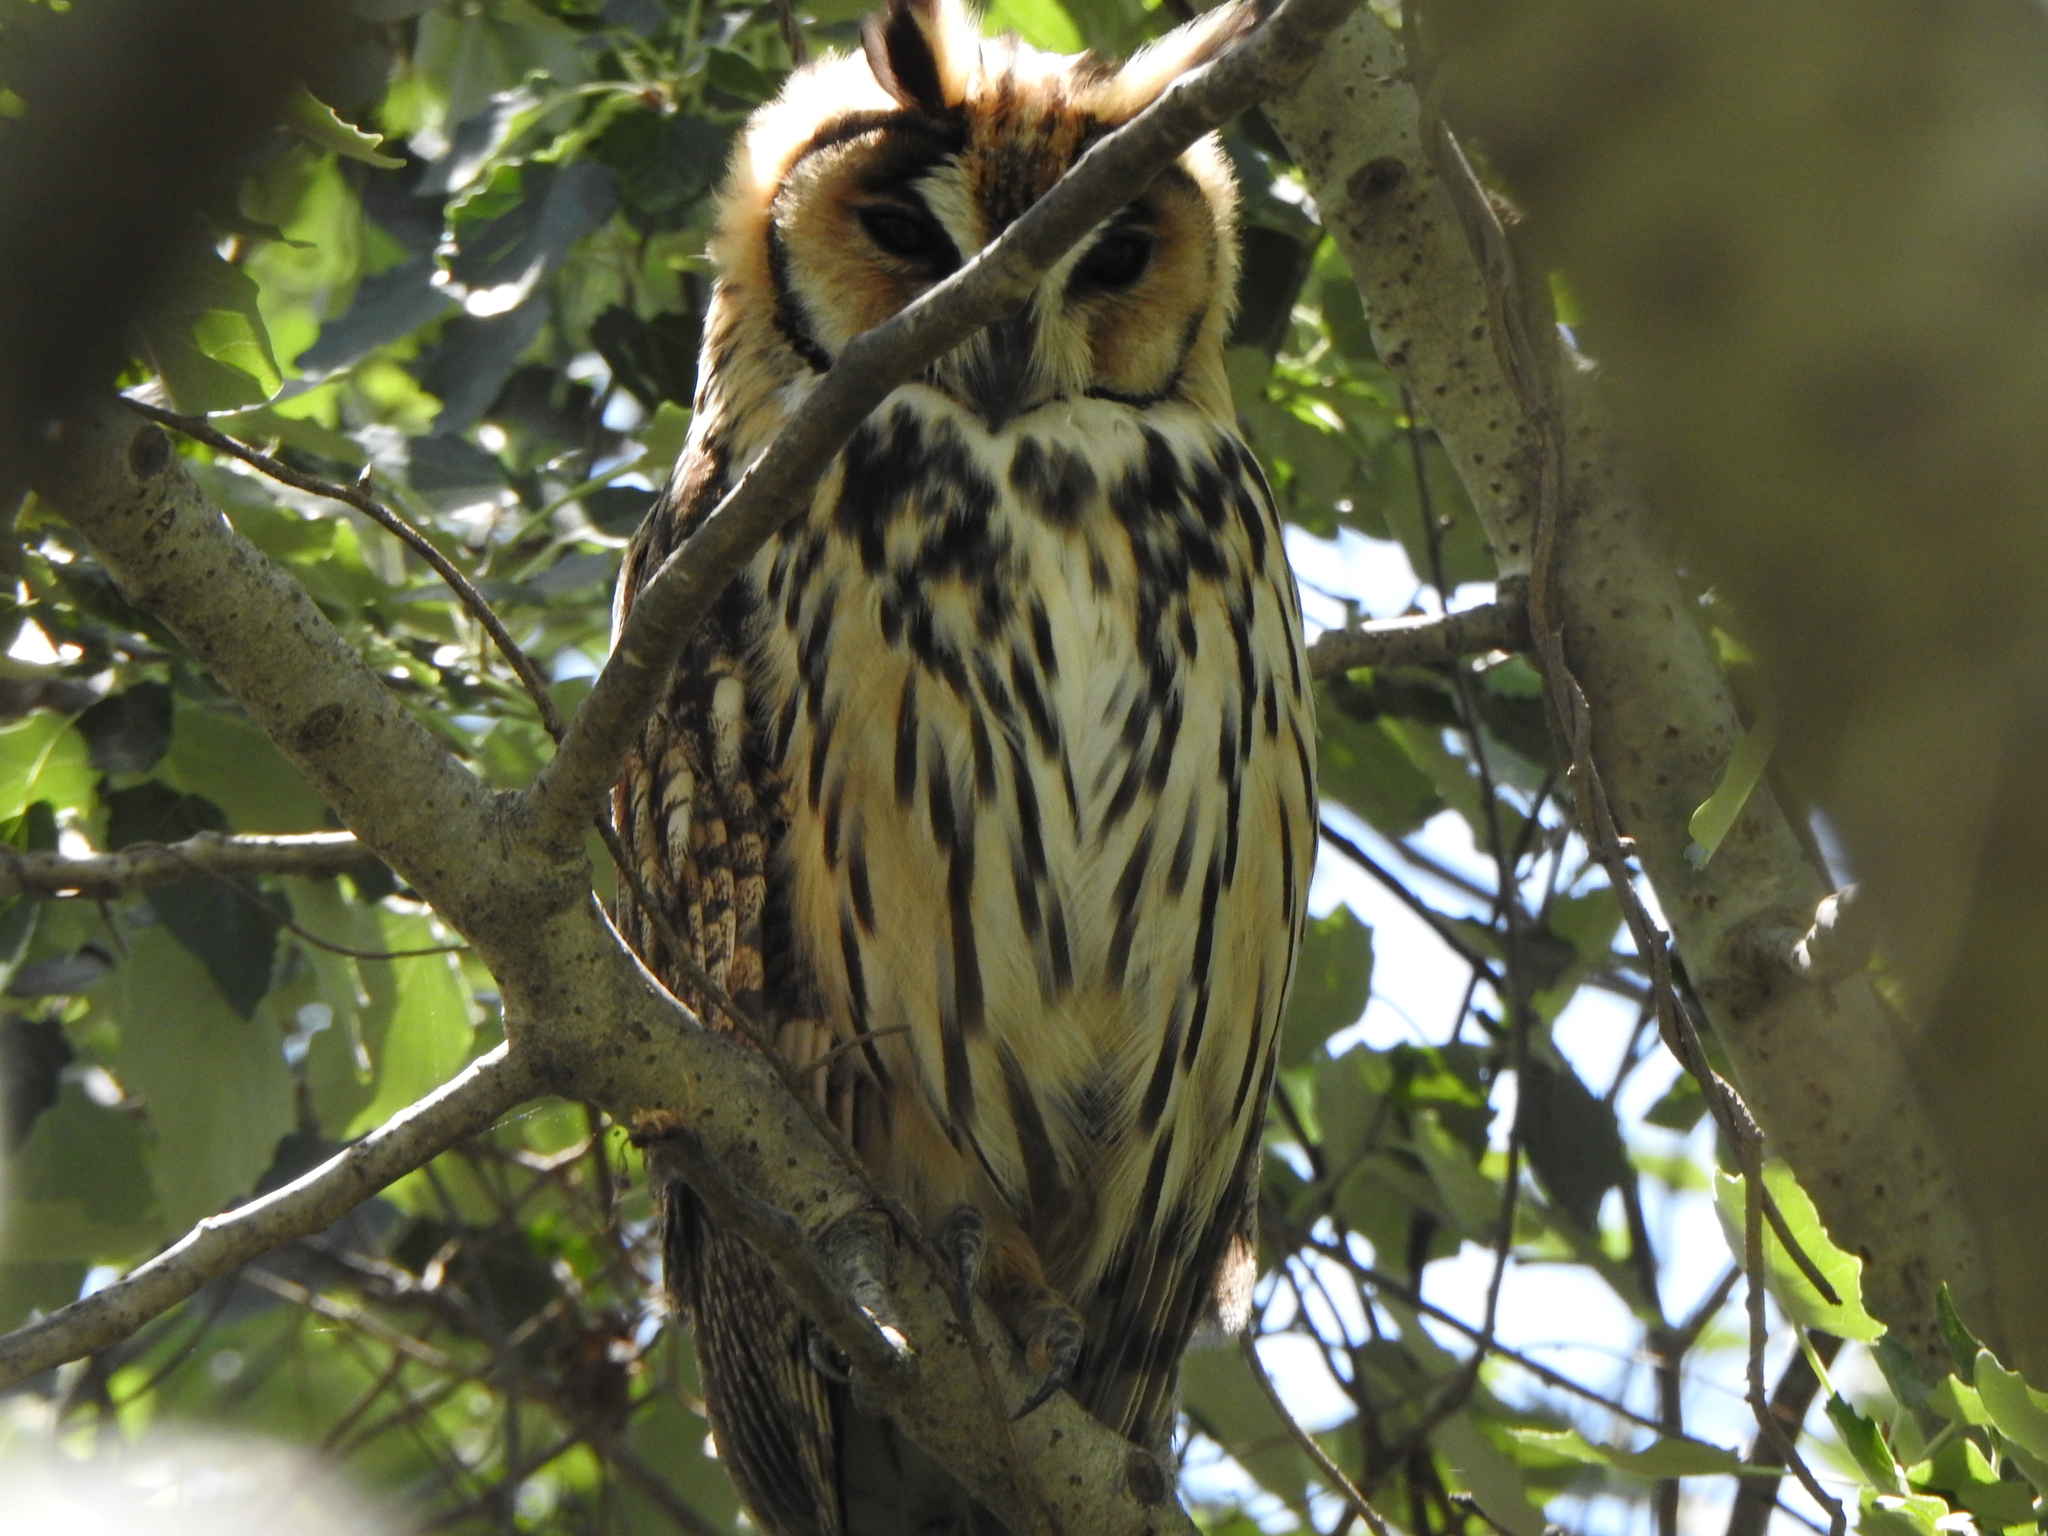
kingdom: Animalia
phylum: Chordata
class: Aves
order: Strigiformes
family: Strigidae
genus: Pseudoscops
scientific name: Pseudoscops clamator
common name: Striped owl
